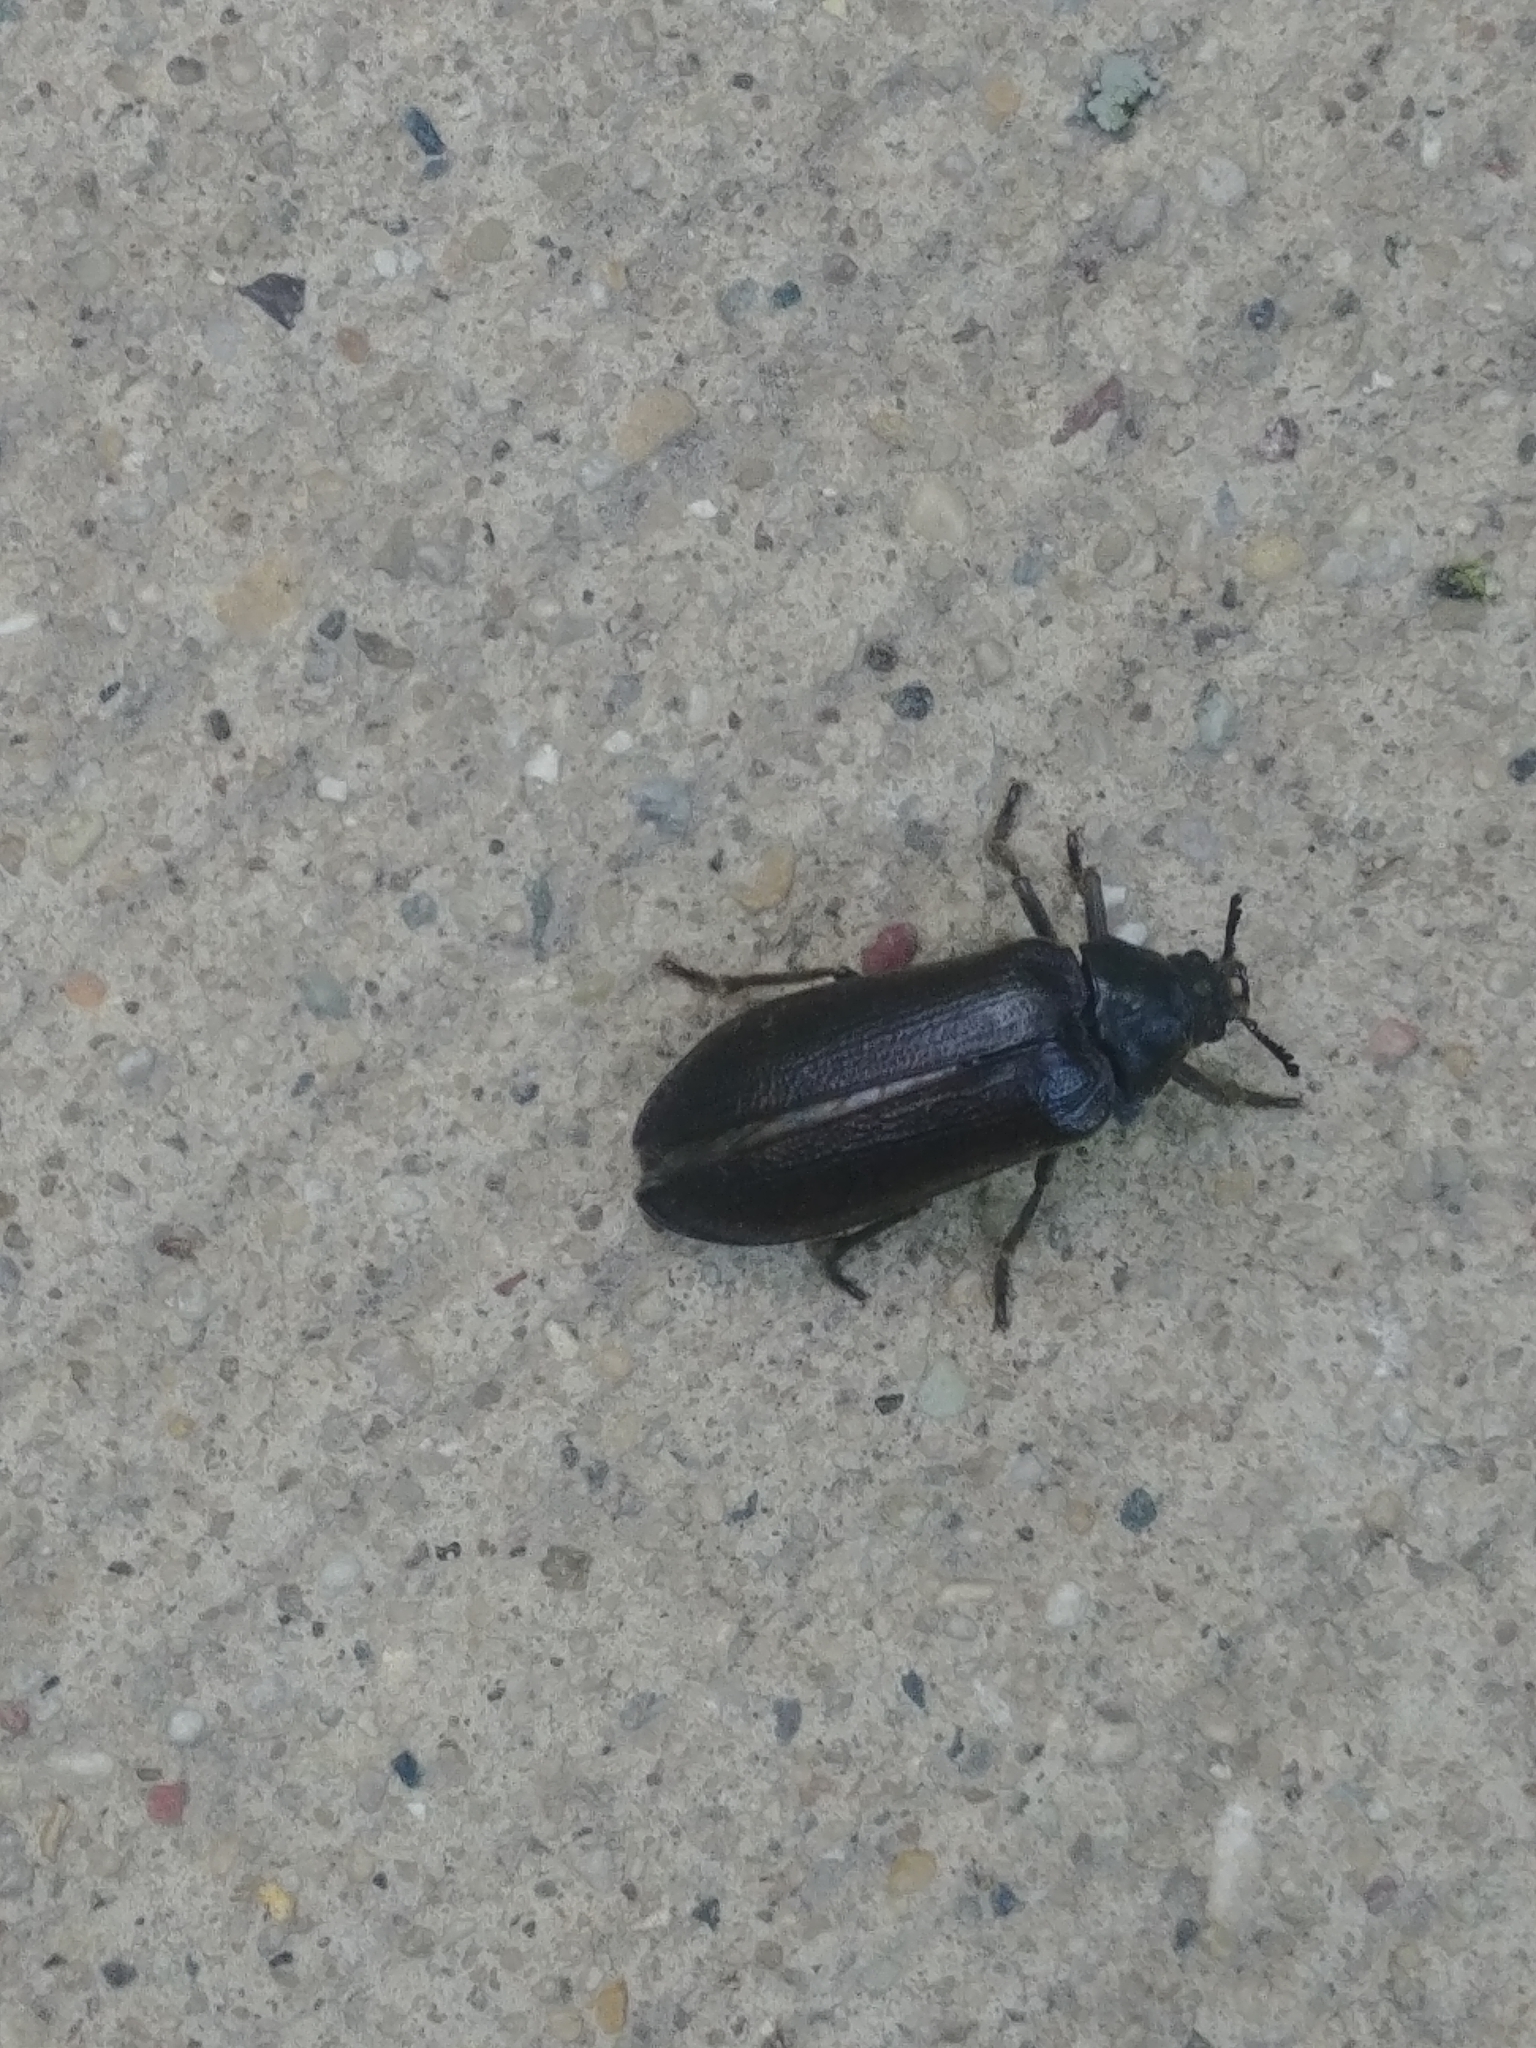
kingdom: Animalia
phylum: Arthropoda
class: Insecta
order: Coleoptera
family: Rhipiceridae
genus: Sandalus
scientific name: Sandalus petrophya
